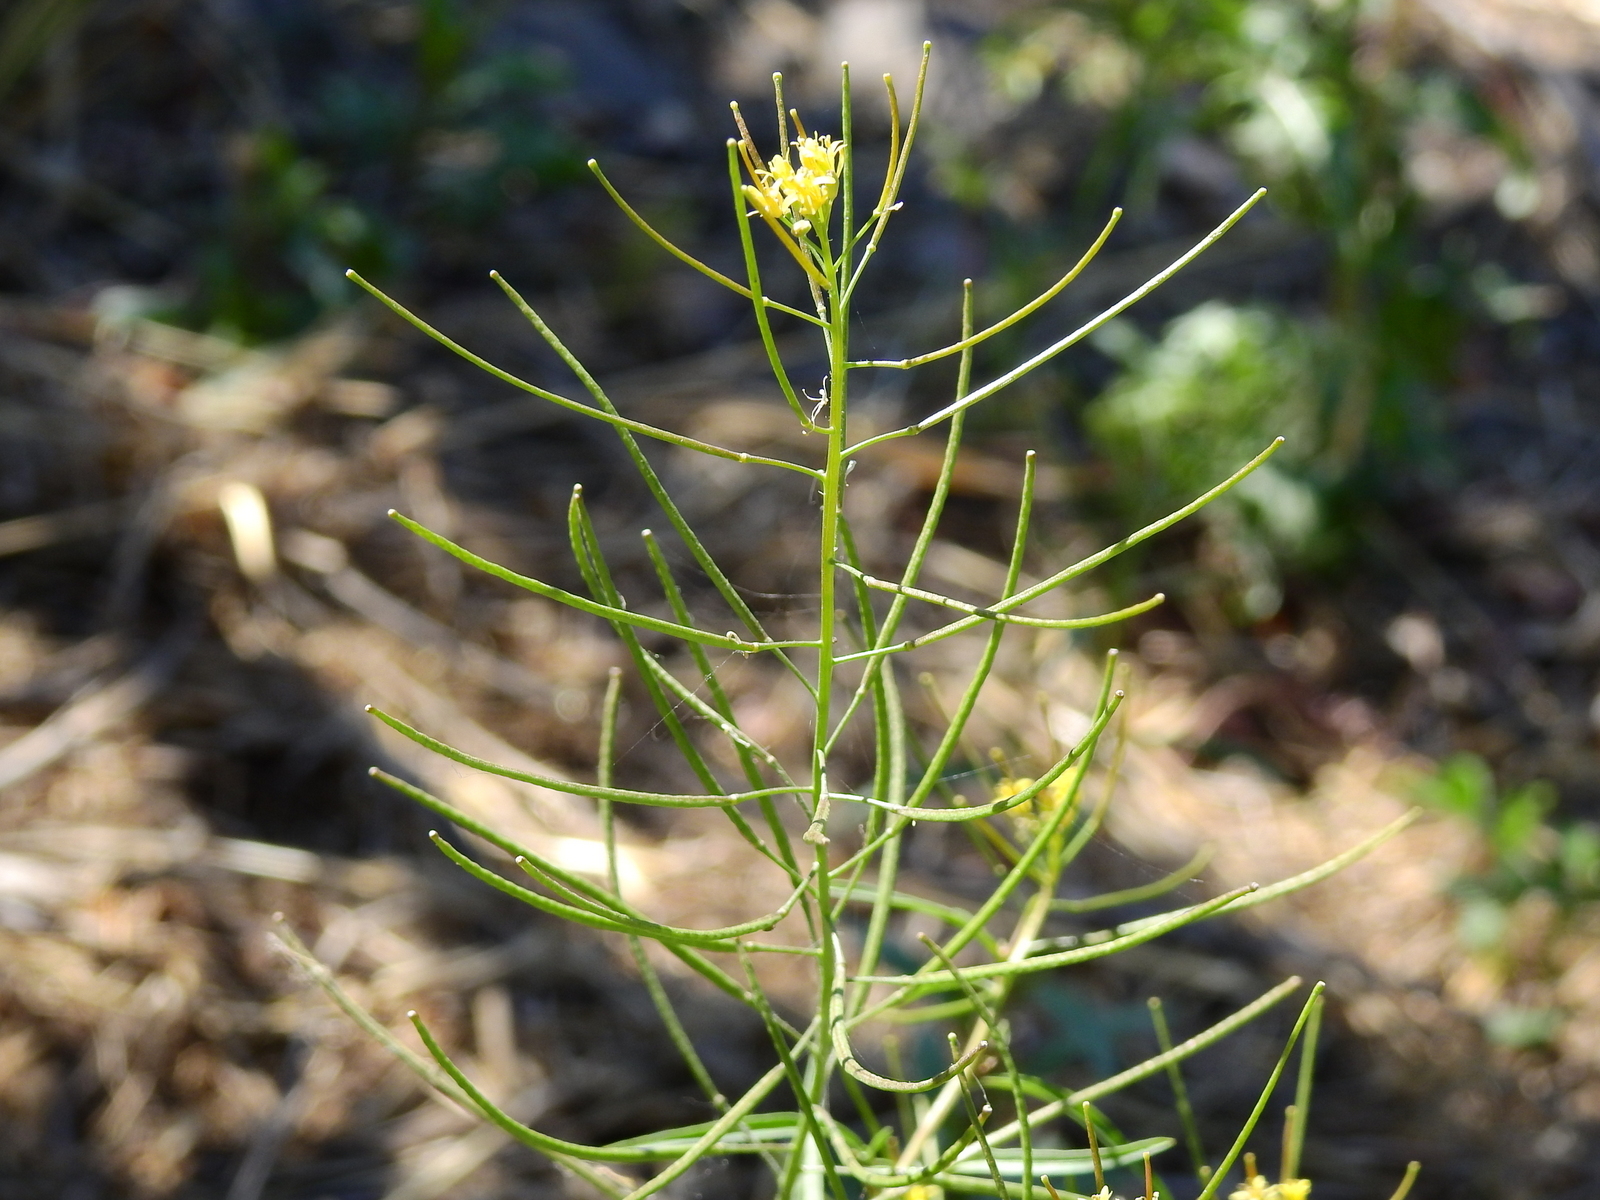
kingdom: Plantae
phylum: Tracheophyta
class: Magnoliopsida
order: Brassicales
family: Brassicaceae
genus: Sisymbrium
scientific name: Sisymbrium irio
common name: London rocket
